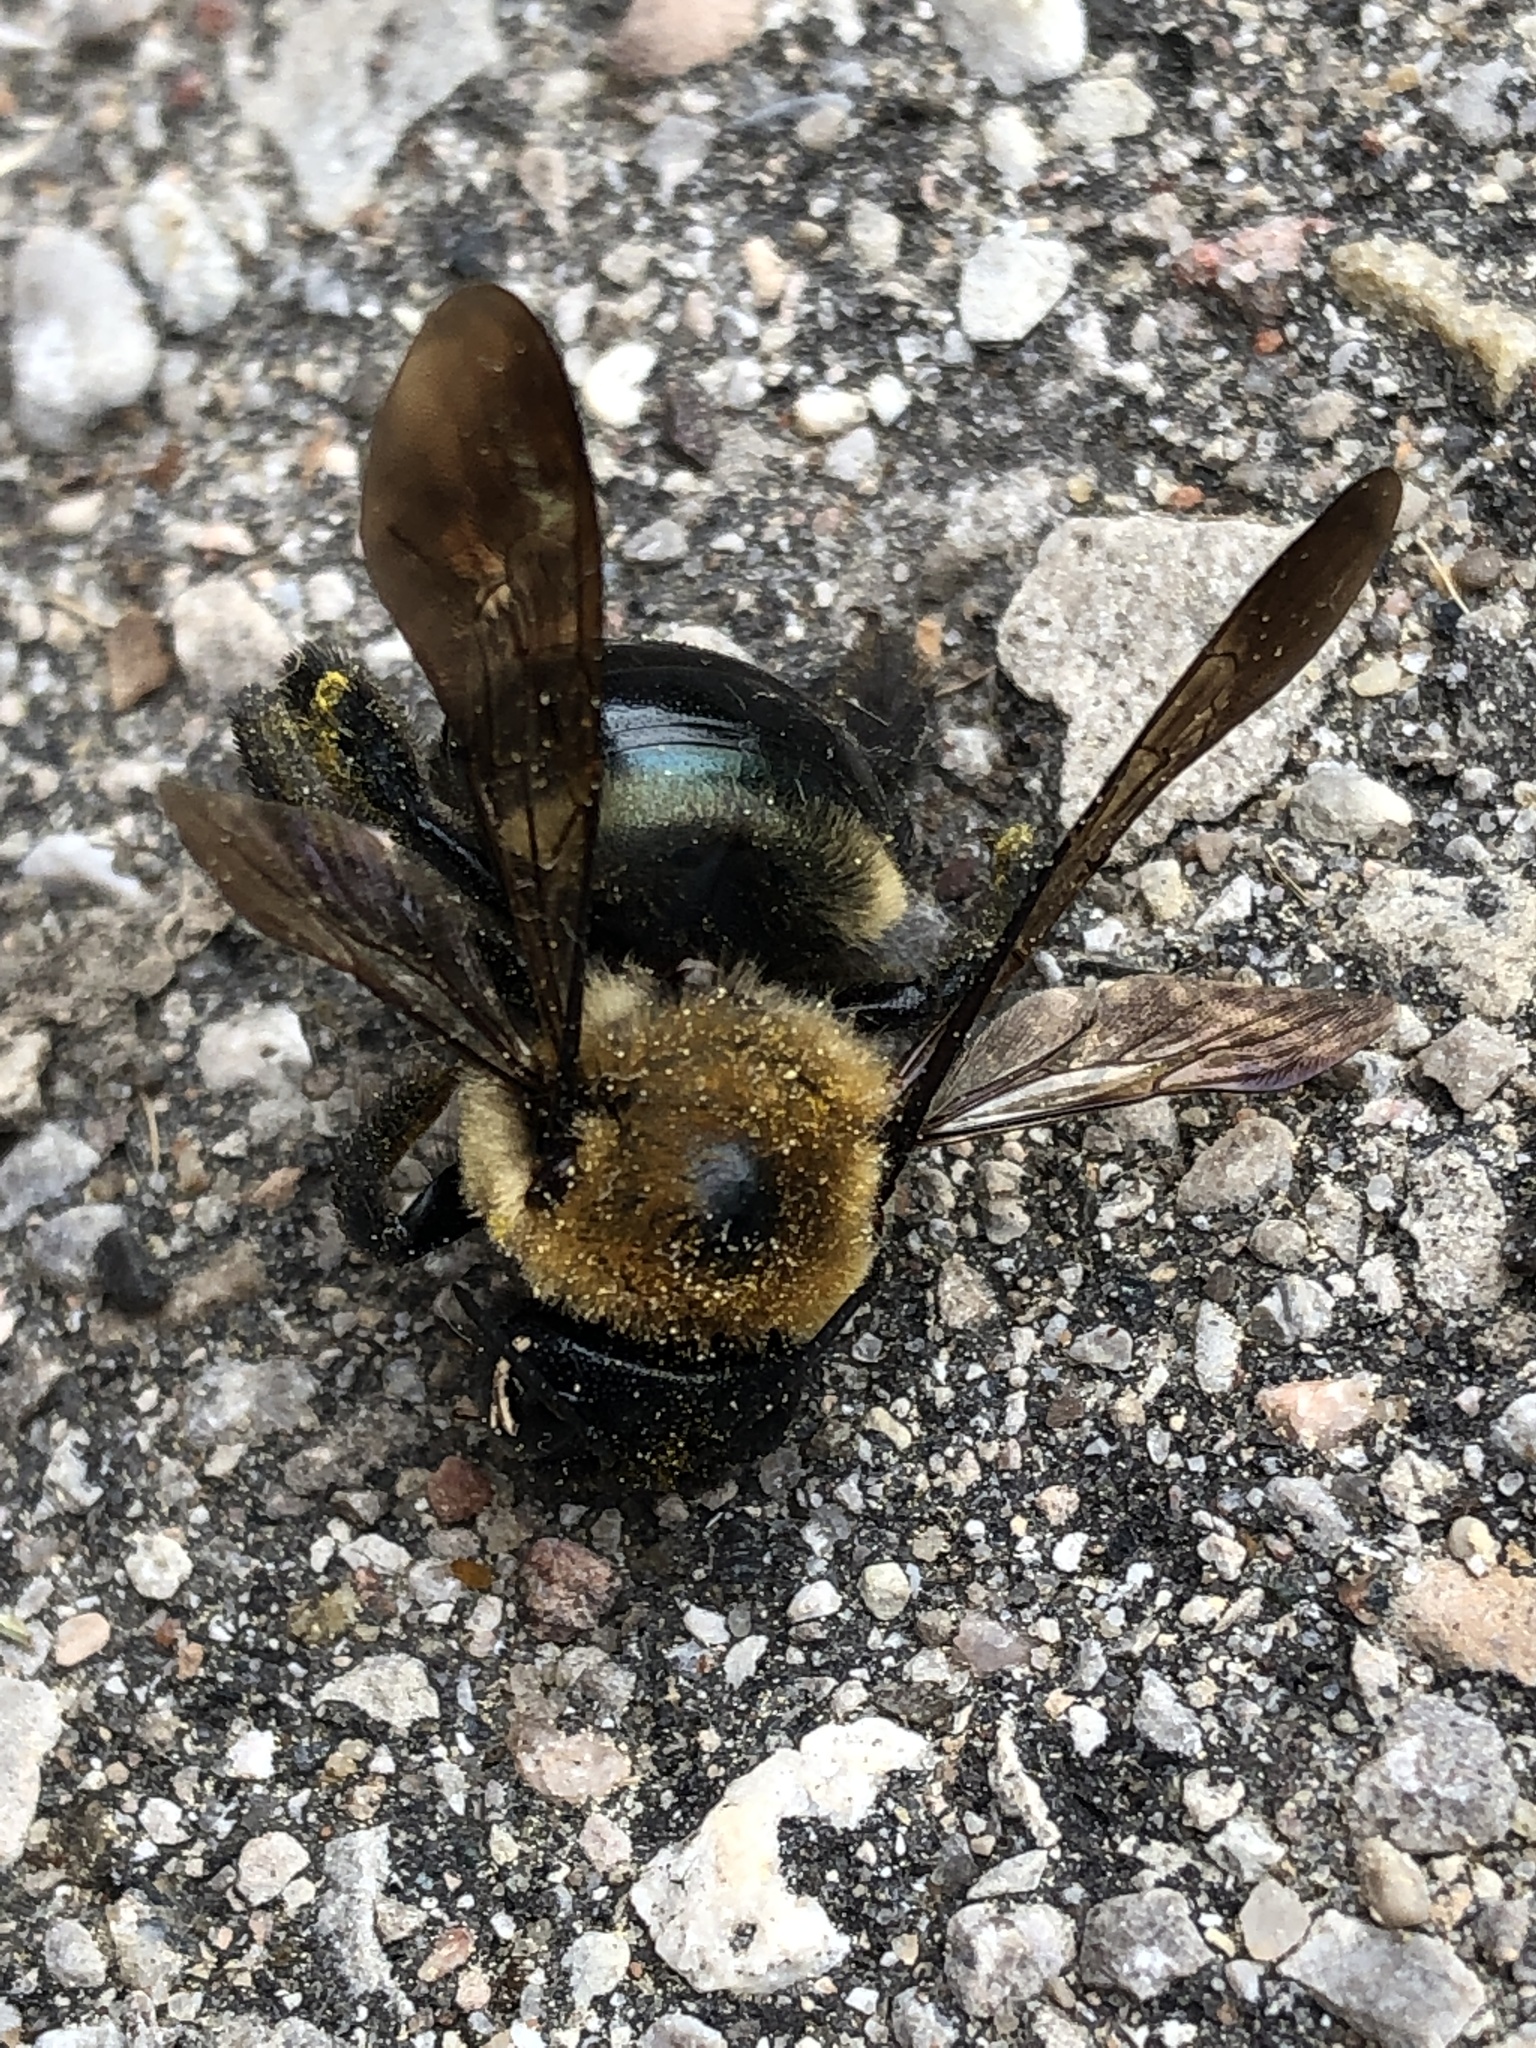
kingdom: Animalia
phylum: Arthropoda
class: Insecta
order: Hymenoptera
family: Apidae
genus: Xylocopa
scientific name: Xylocopa virginica
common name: Carpenter bee
